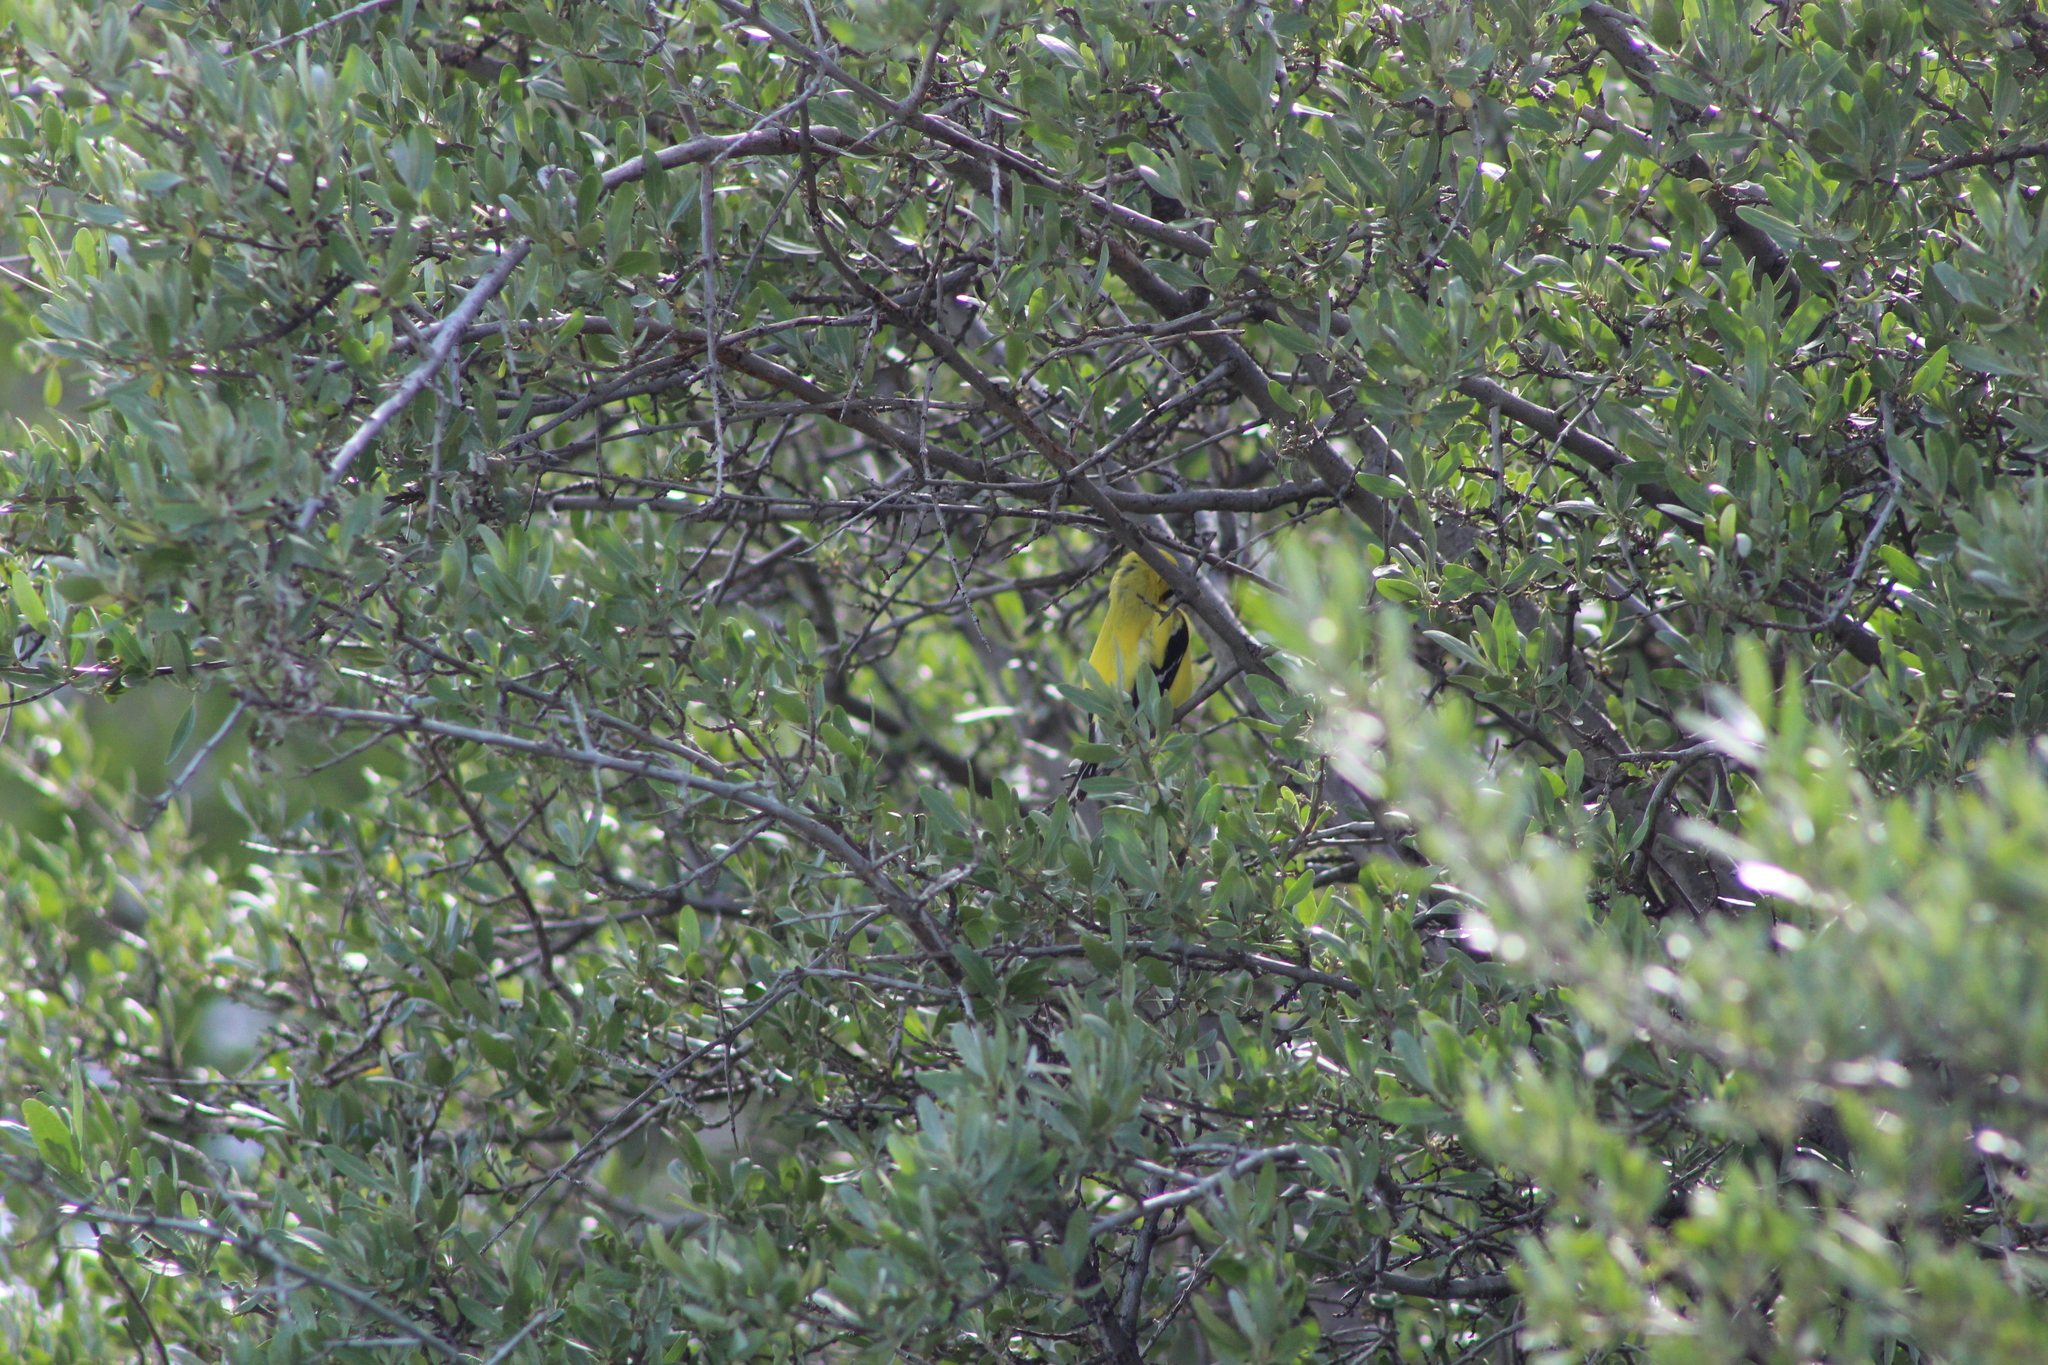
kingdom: Animalia
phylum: Chordata
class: Aves
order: Passeriformes
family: Fringillidae
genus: Spinus
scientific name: Spinus tristis
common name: American goldfinch
